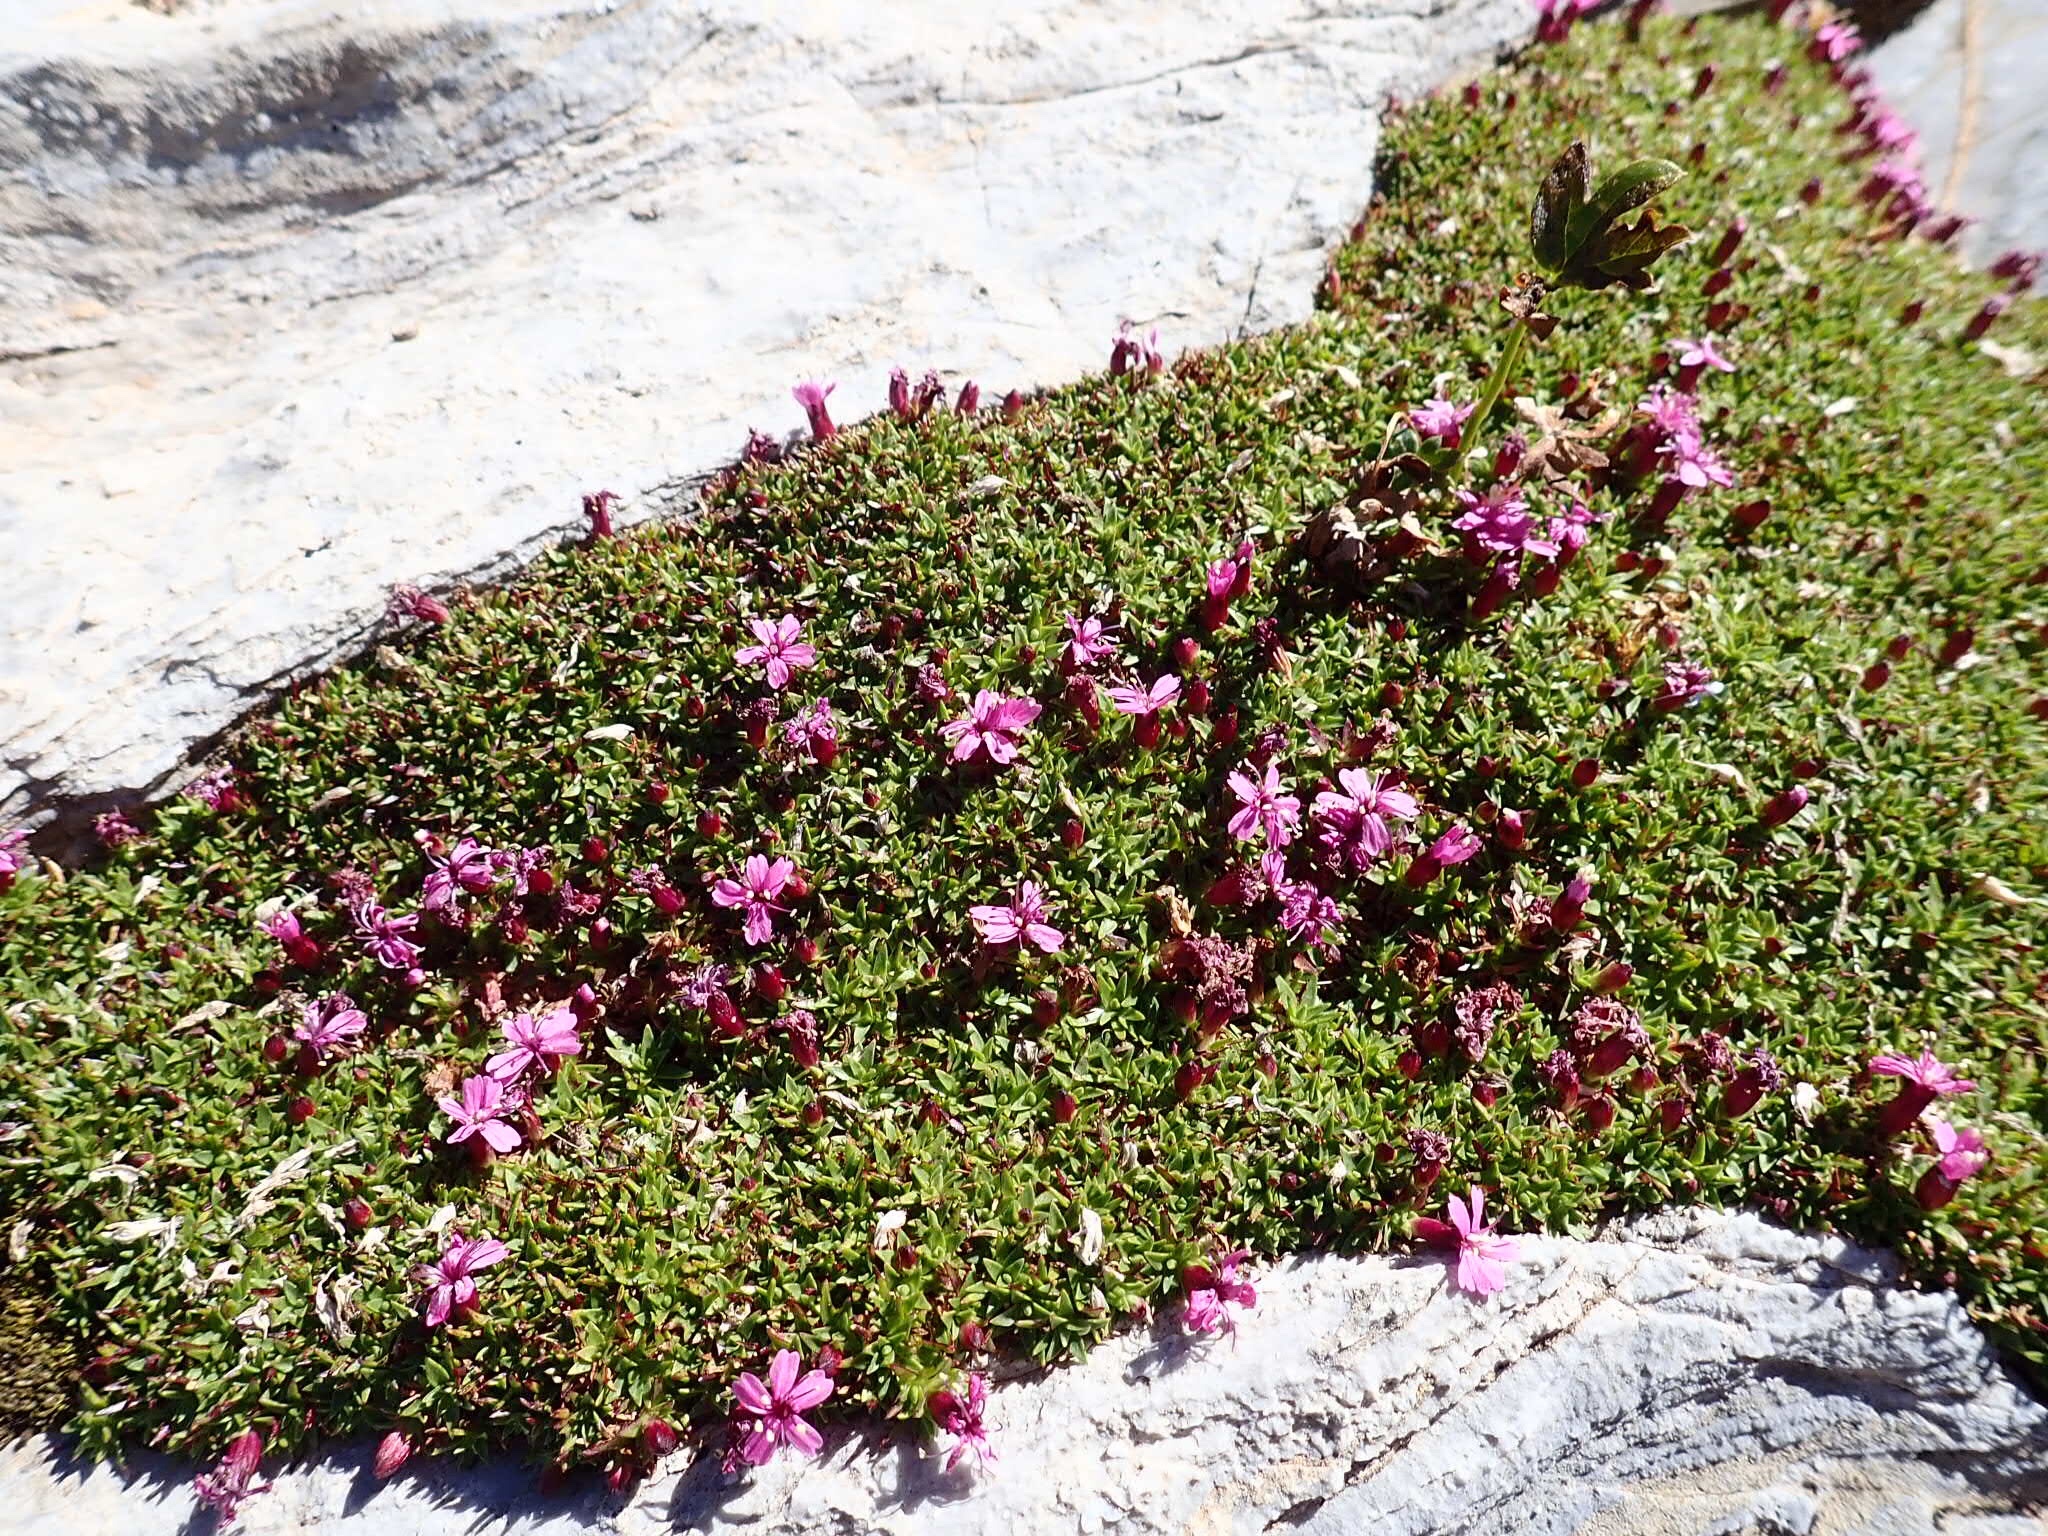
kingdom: Plantae
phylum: Tracheophyta
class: Magnoliopsida
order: Caryophyllales
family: Caryophyllaceae
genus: Silene
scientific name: Silene acaulis
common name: Moss campion
